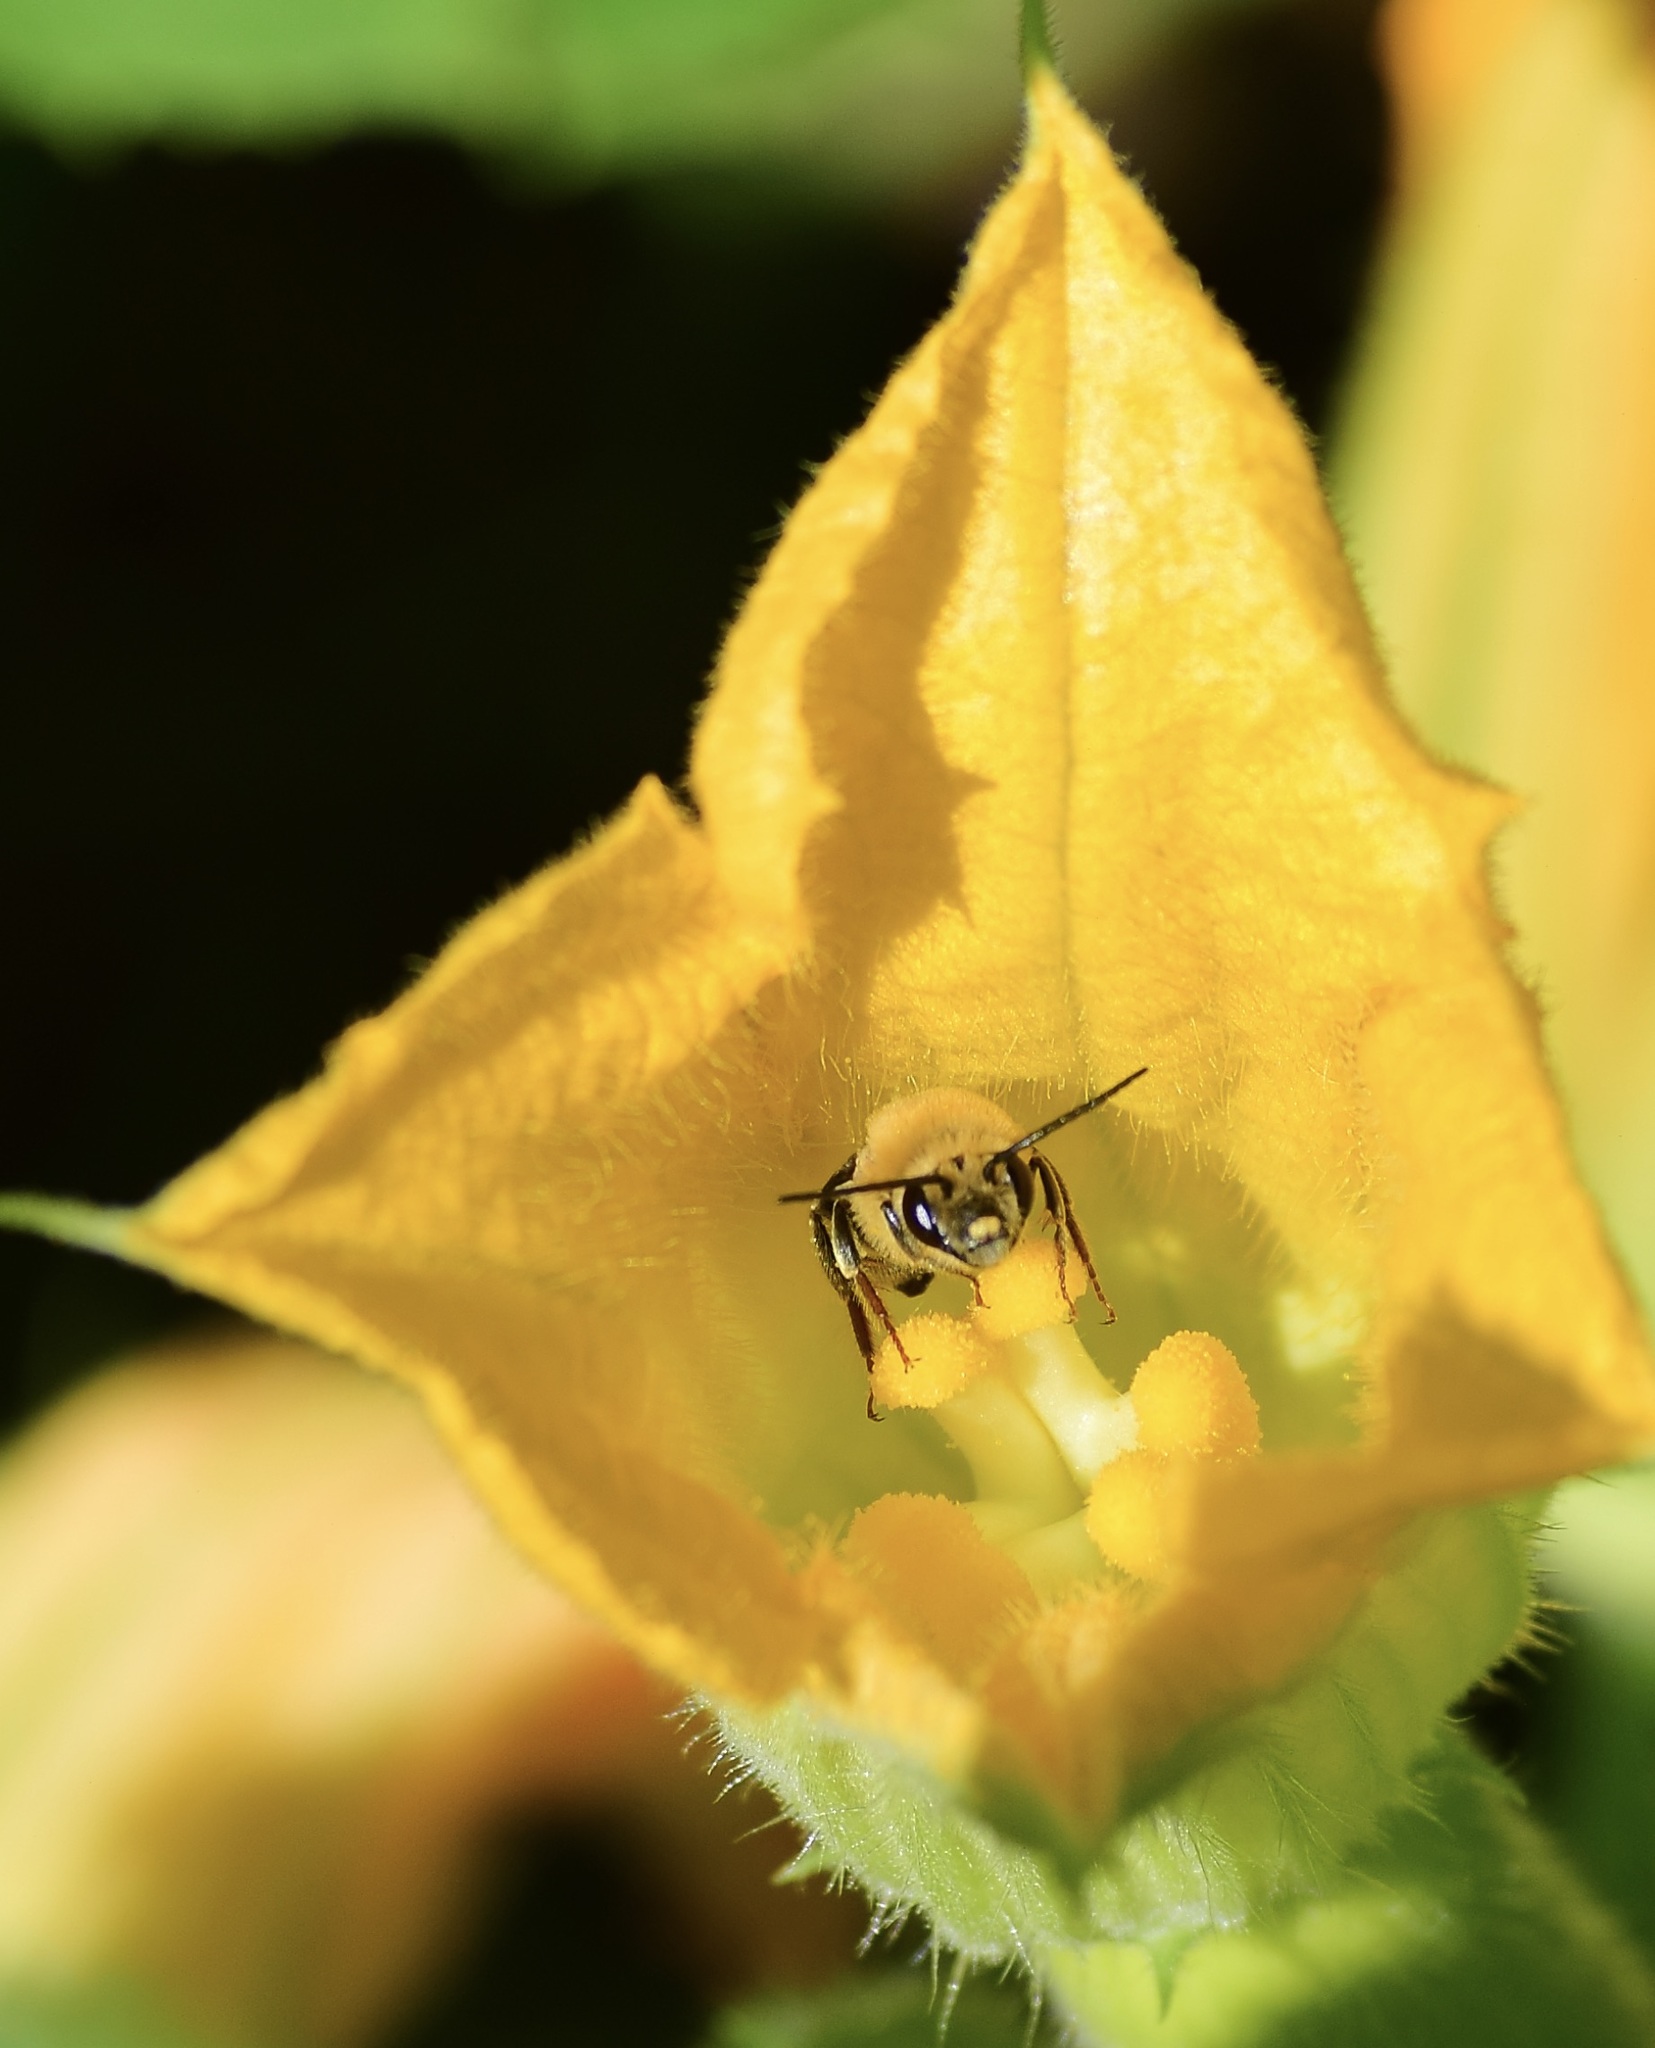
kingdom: Animalia
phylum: Arthropoda
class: Insecta
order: Hymenoptera
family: Apidae
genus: Peponapis
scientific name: Peponapis pruinosa
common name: Pruinose squash bee
